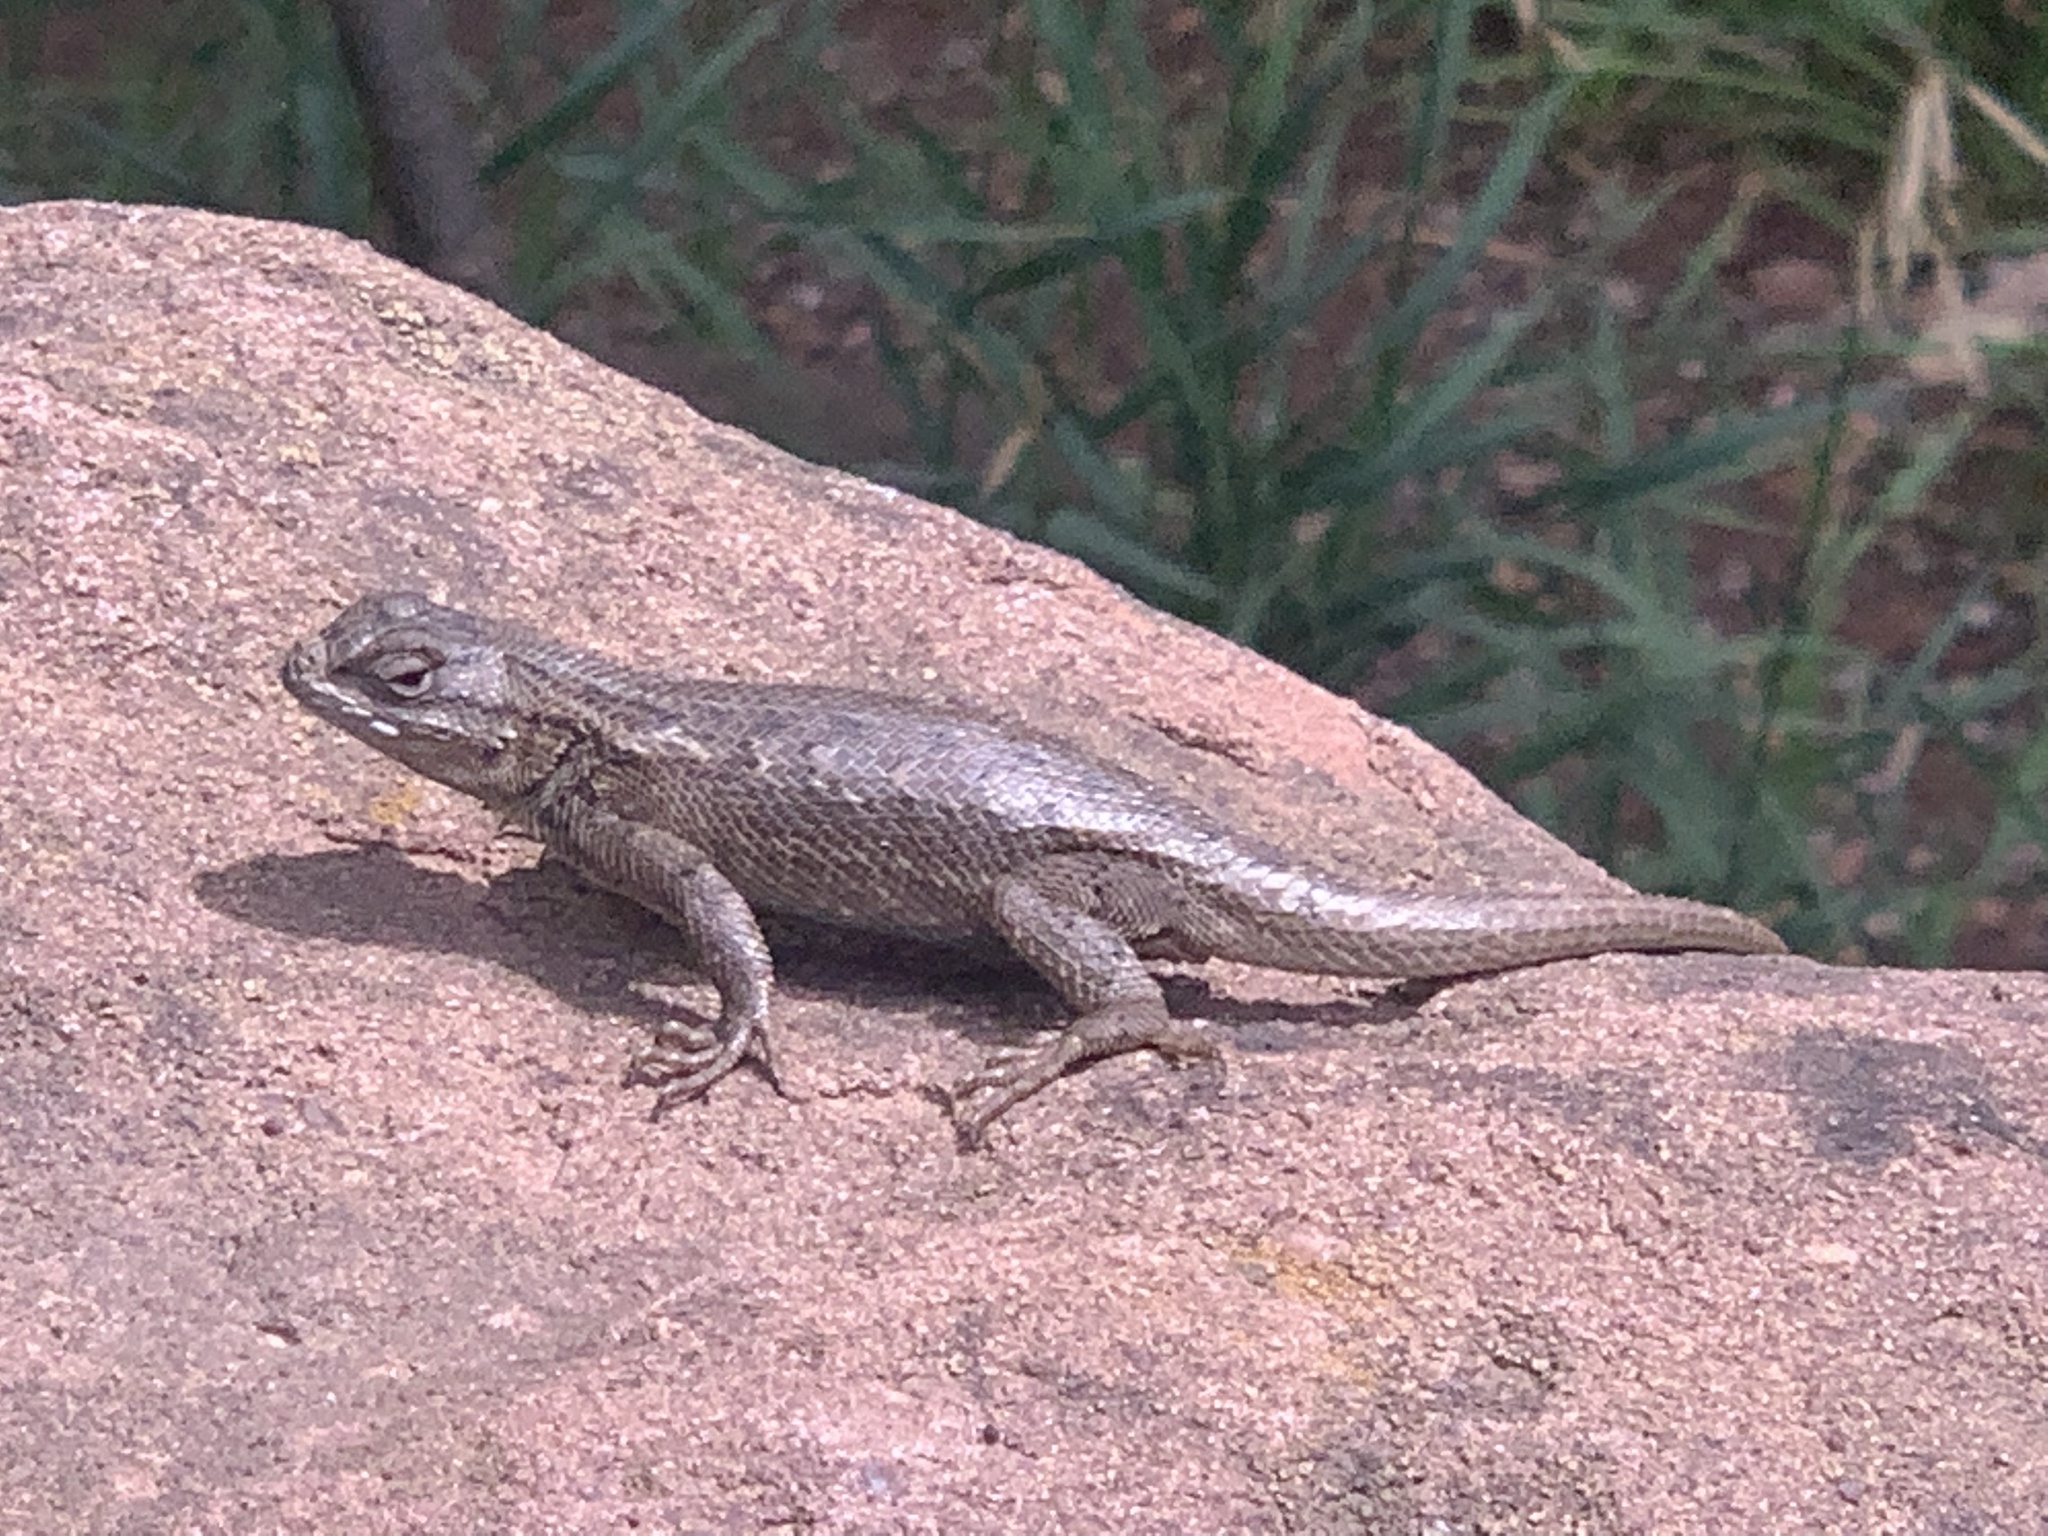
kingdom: Animalia
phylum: Chordata
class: Squamata
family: Phrynosomatidae
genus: Sceloporus
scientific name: Sceloporus
